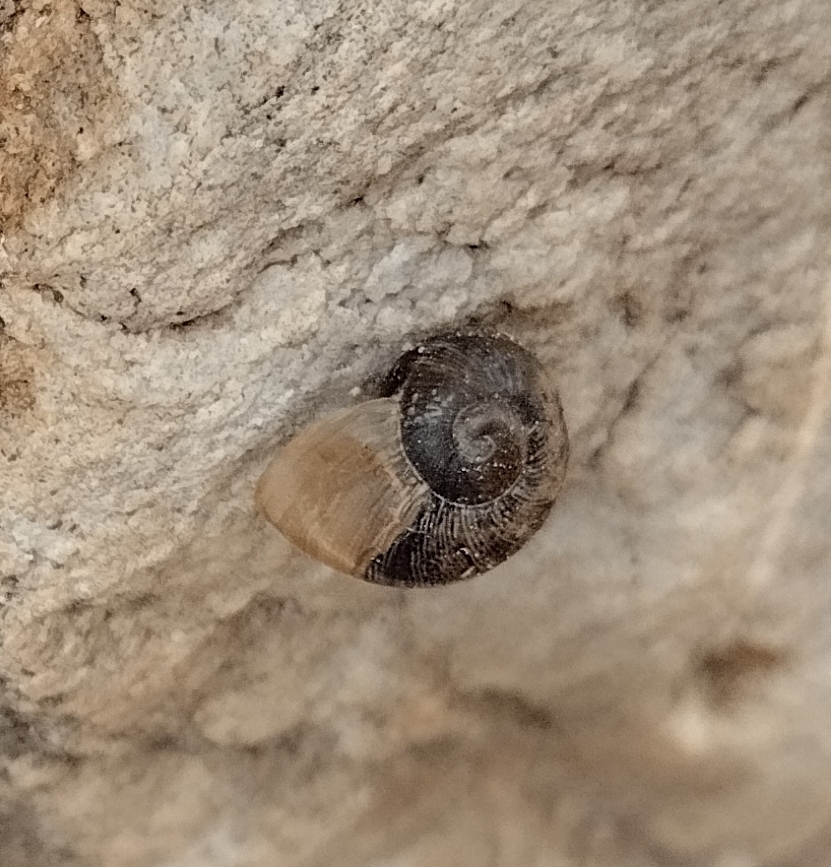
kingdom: Animalia
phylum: Mollusca
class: Gastropoda
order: Stylommatophora
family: Helicidae
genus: Cornu
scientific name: Cornu aspersum
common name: Brown garden snail
